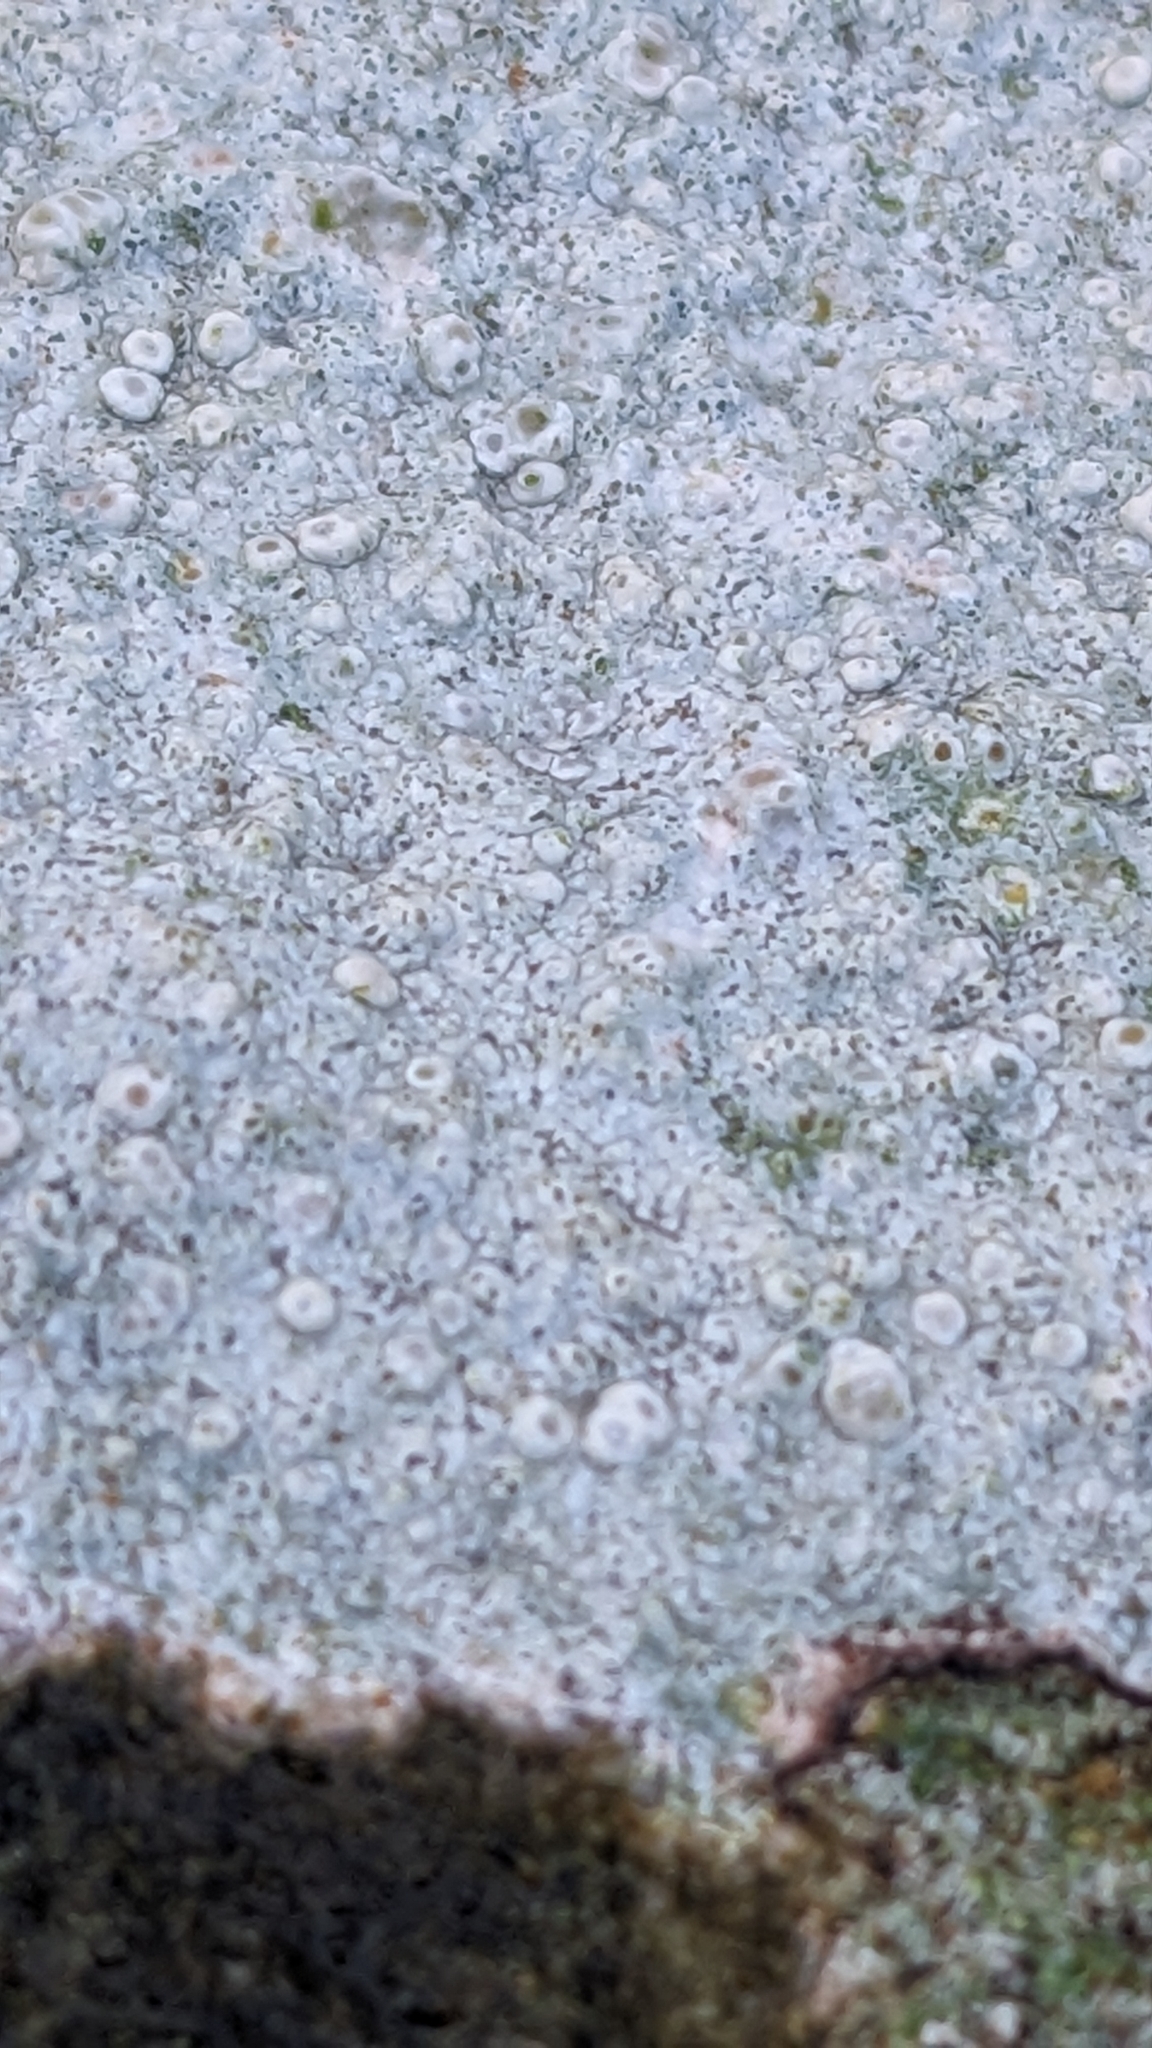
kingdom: Fungi
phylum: Ascomycota
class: Lecanoromycetes
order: Pertusariales
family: Ochrolechiaceae
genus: Ochrolechia
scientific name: Ochrolechia parella
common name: Crab's eye lichen
